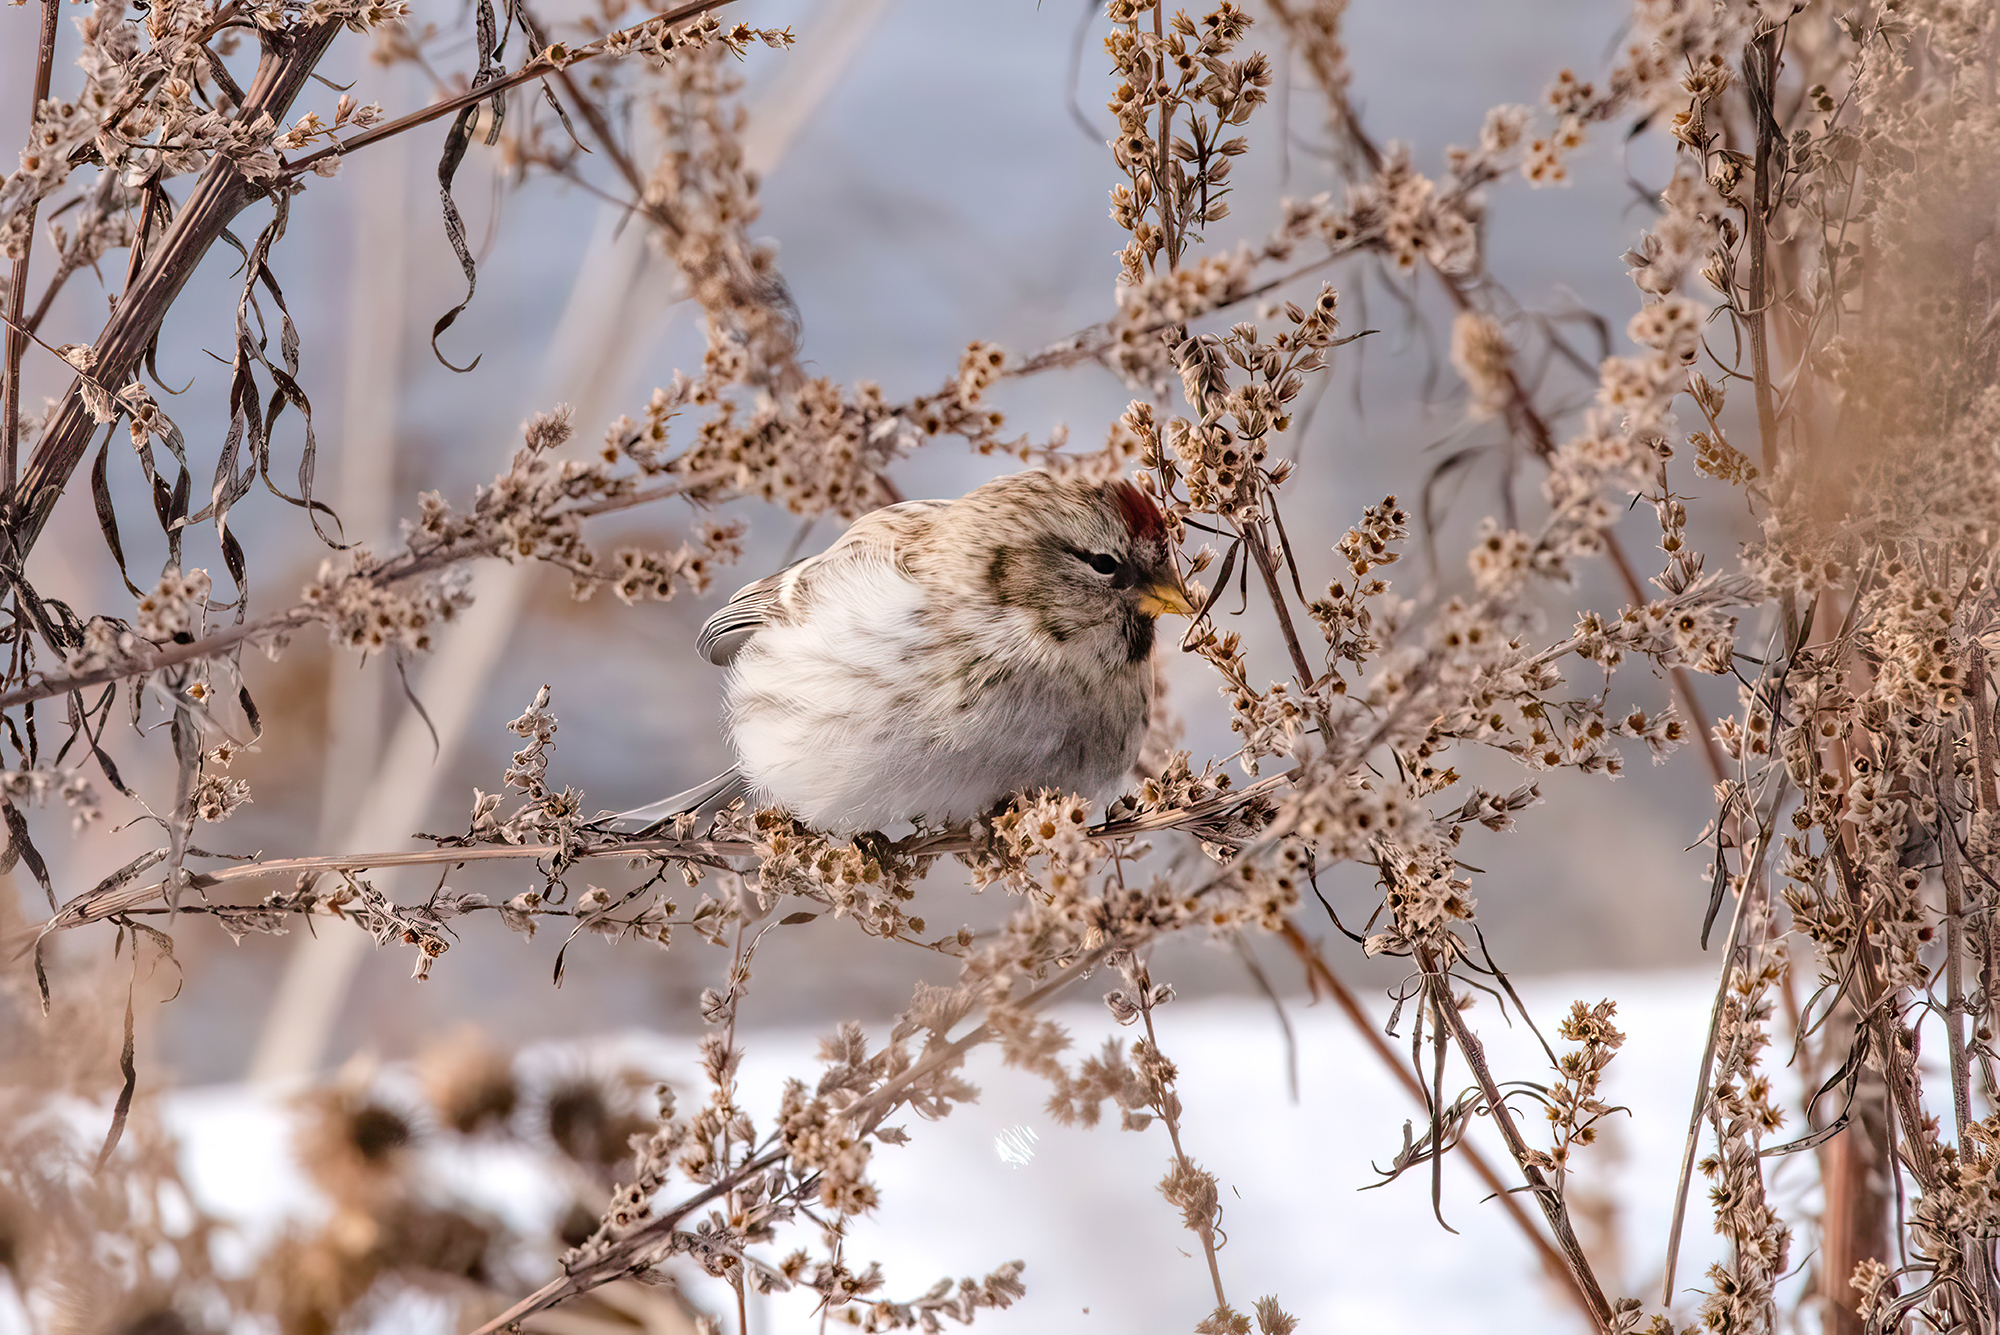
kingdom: Animalia
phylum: Chordata
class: Aves
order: Passeriformes
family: Fringillidae
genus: Acanthis
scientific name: Acanthis flammea
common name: Common redpoll
